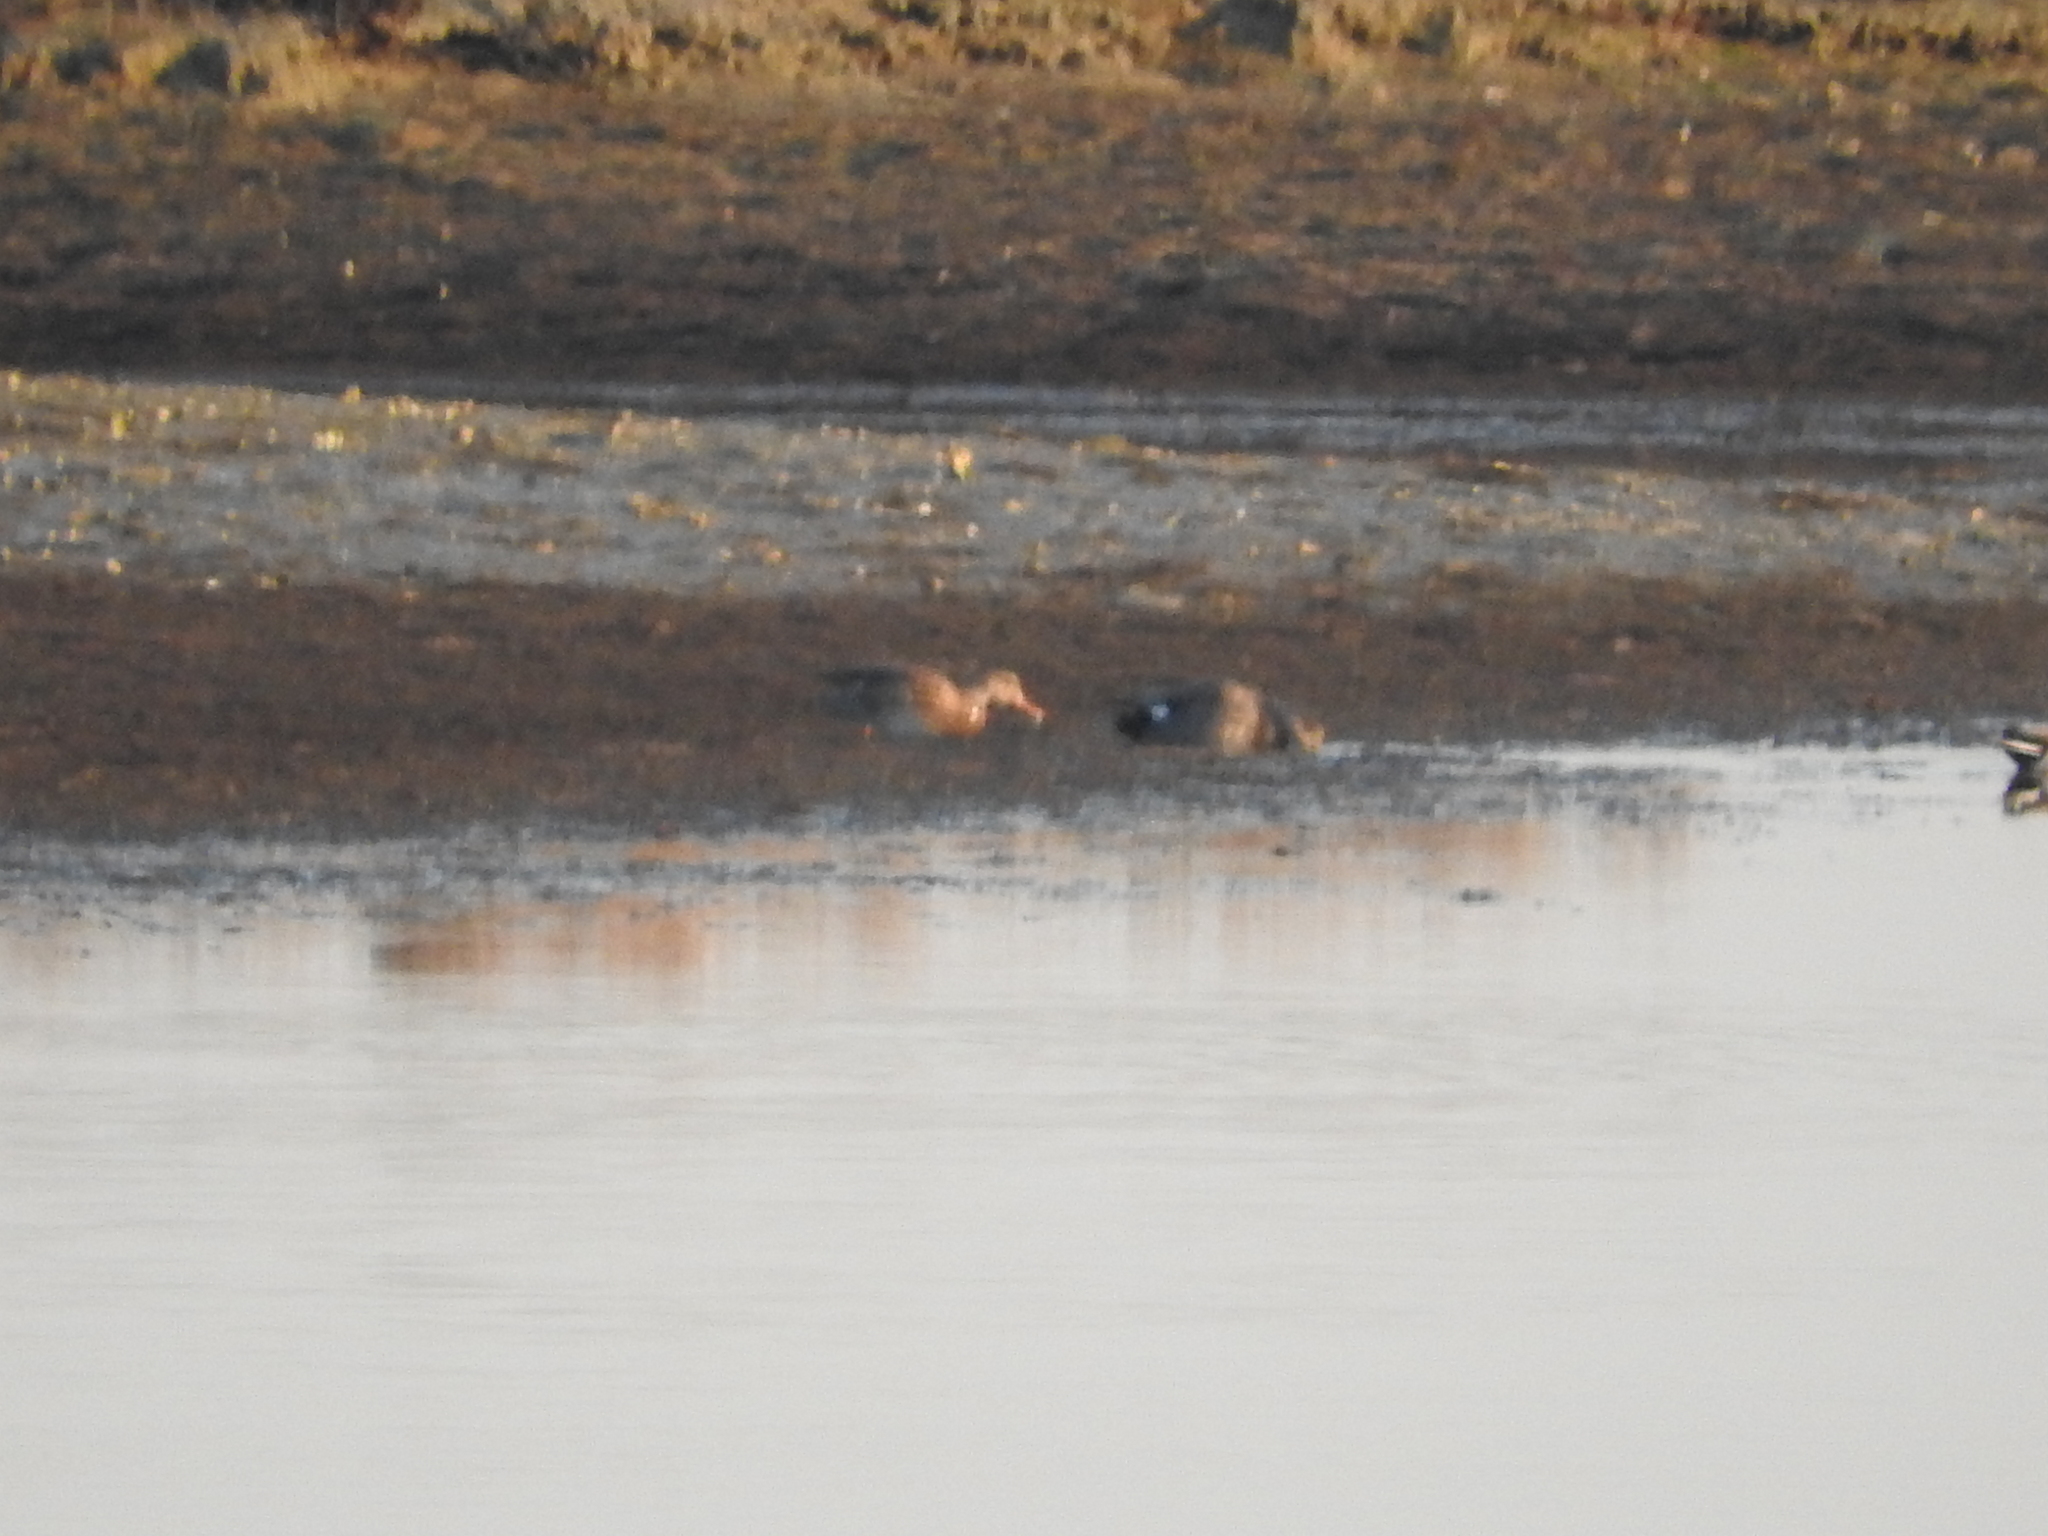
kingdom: Animalia
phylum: Chordata
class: Aves
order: Anseriformes
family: Anatidae
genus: Mareca
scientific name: Mareca strepera
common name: Gadwall
